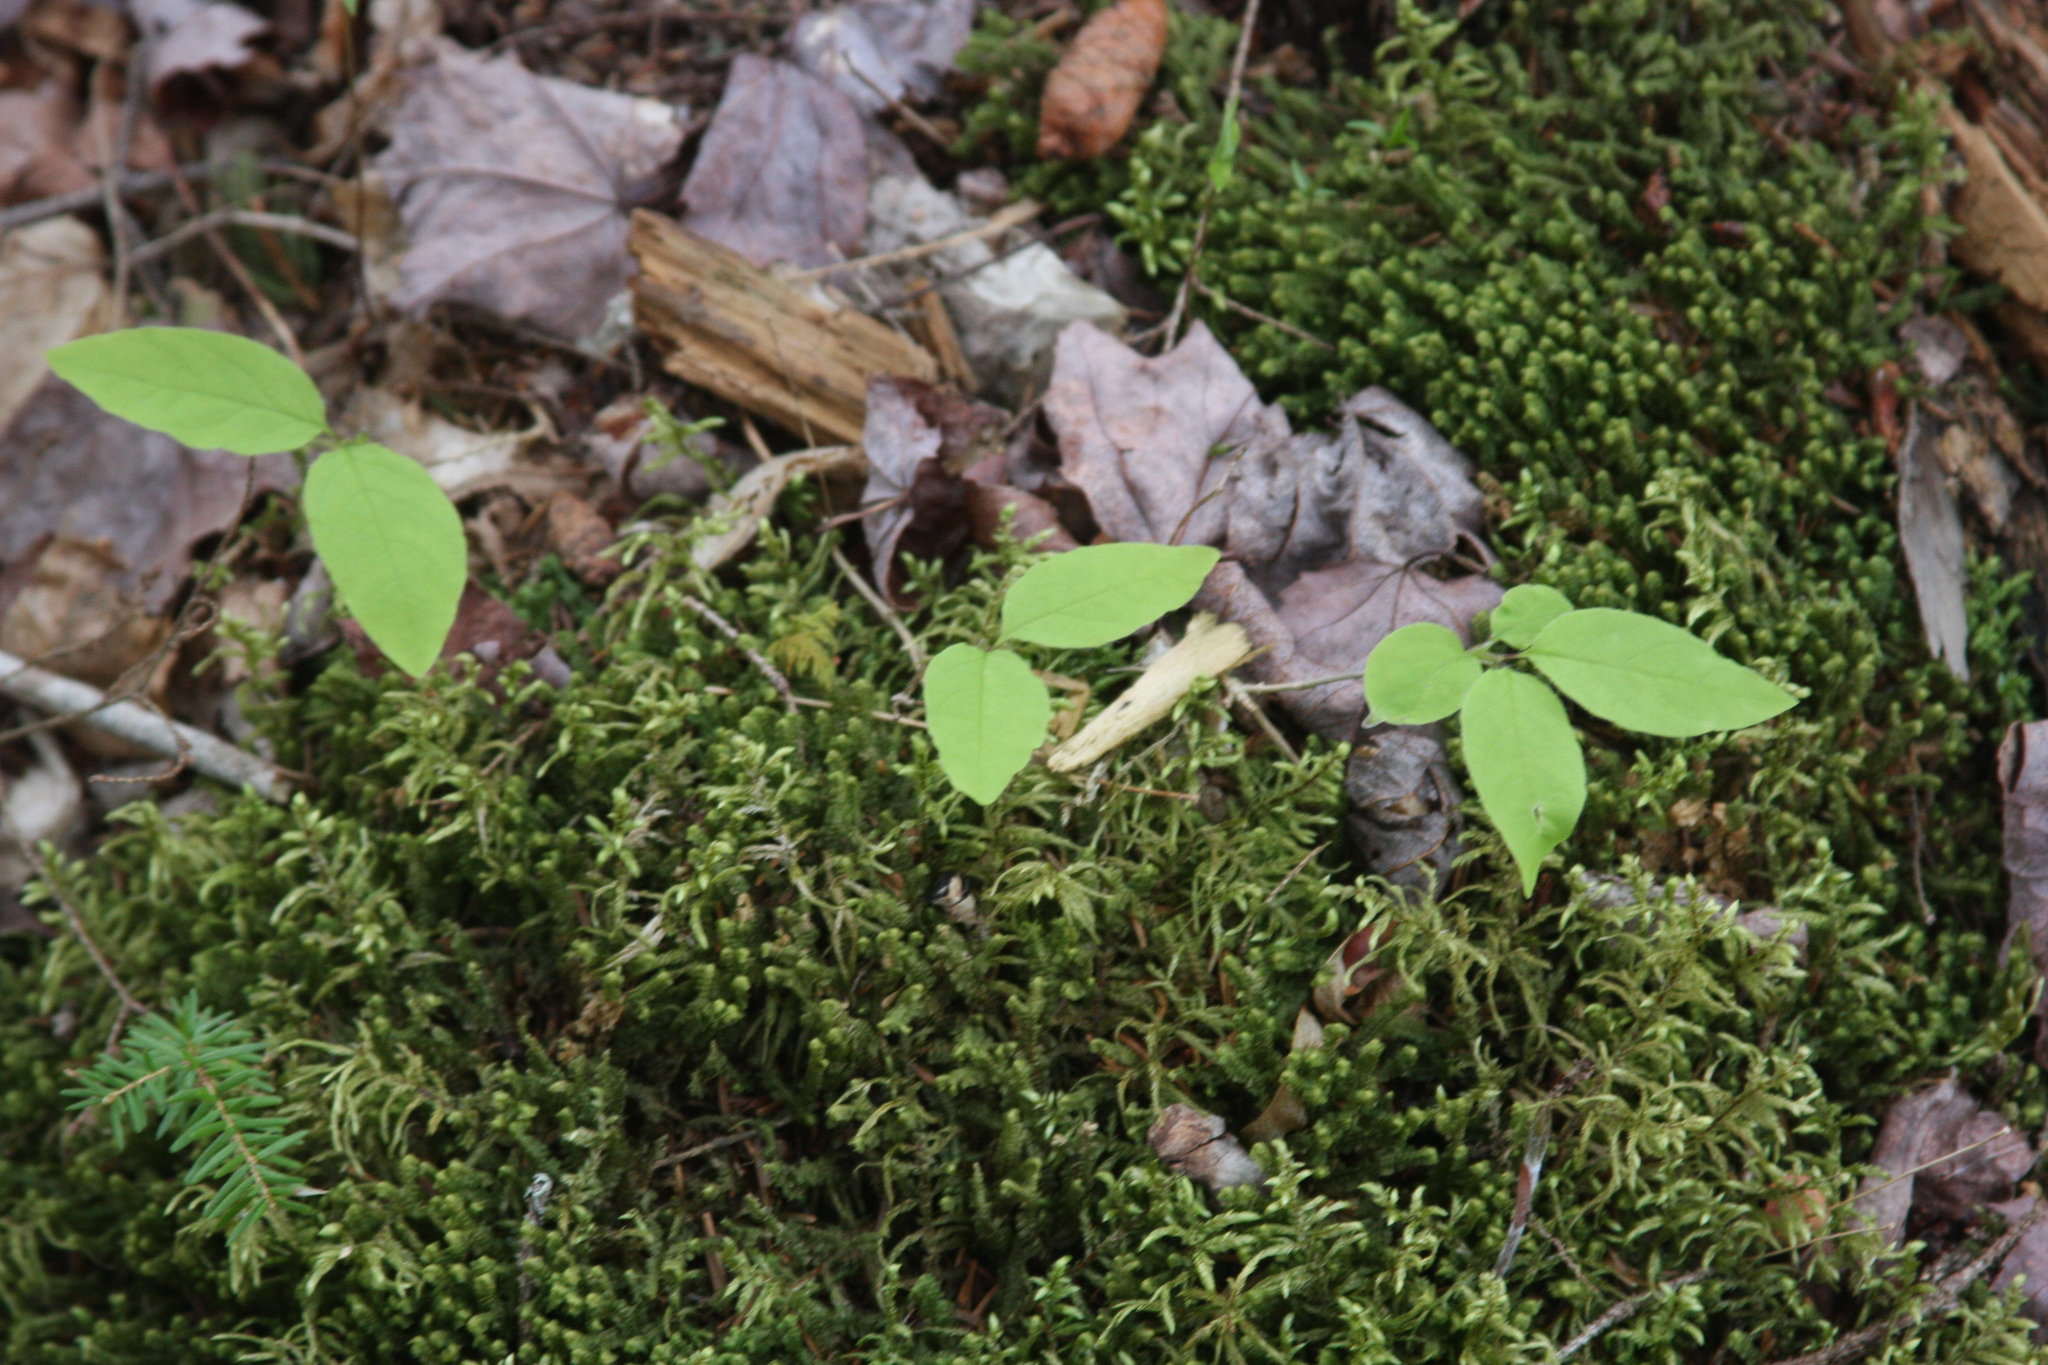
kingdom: Plantae
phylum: Tracheophyta
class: Magnoliopsida
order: Dipsacales
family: Caprifoliaceae
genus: Lonicera
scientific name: Lonicera canadensis
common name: American fly-honeysuckle
